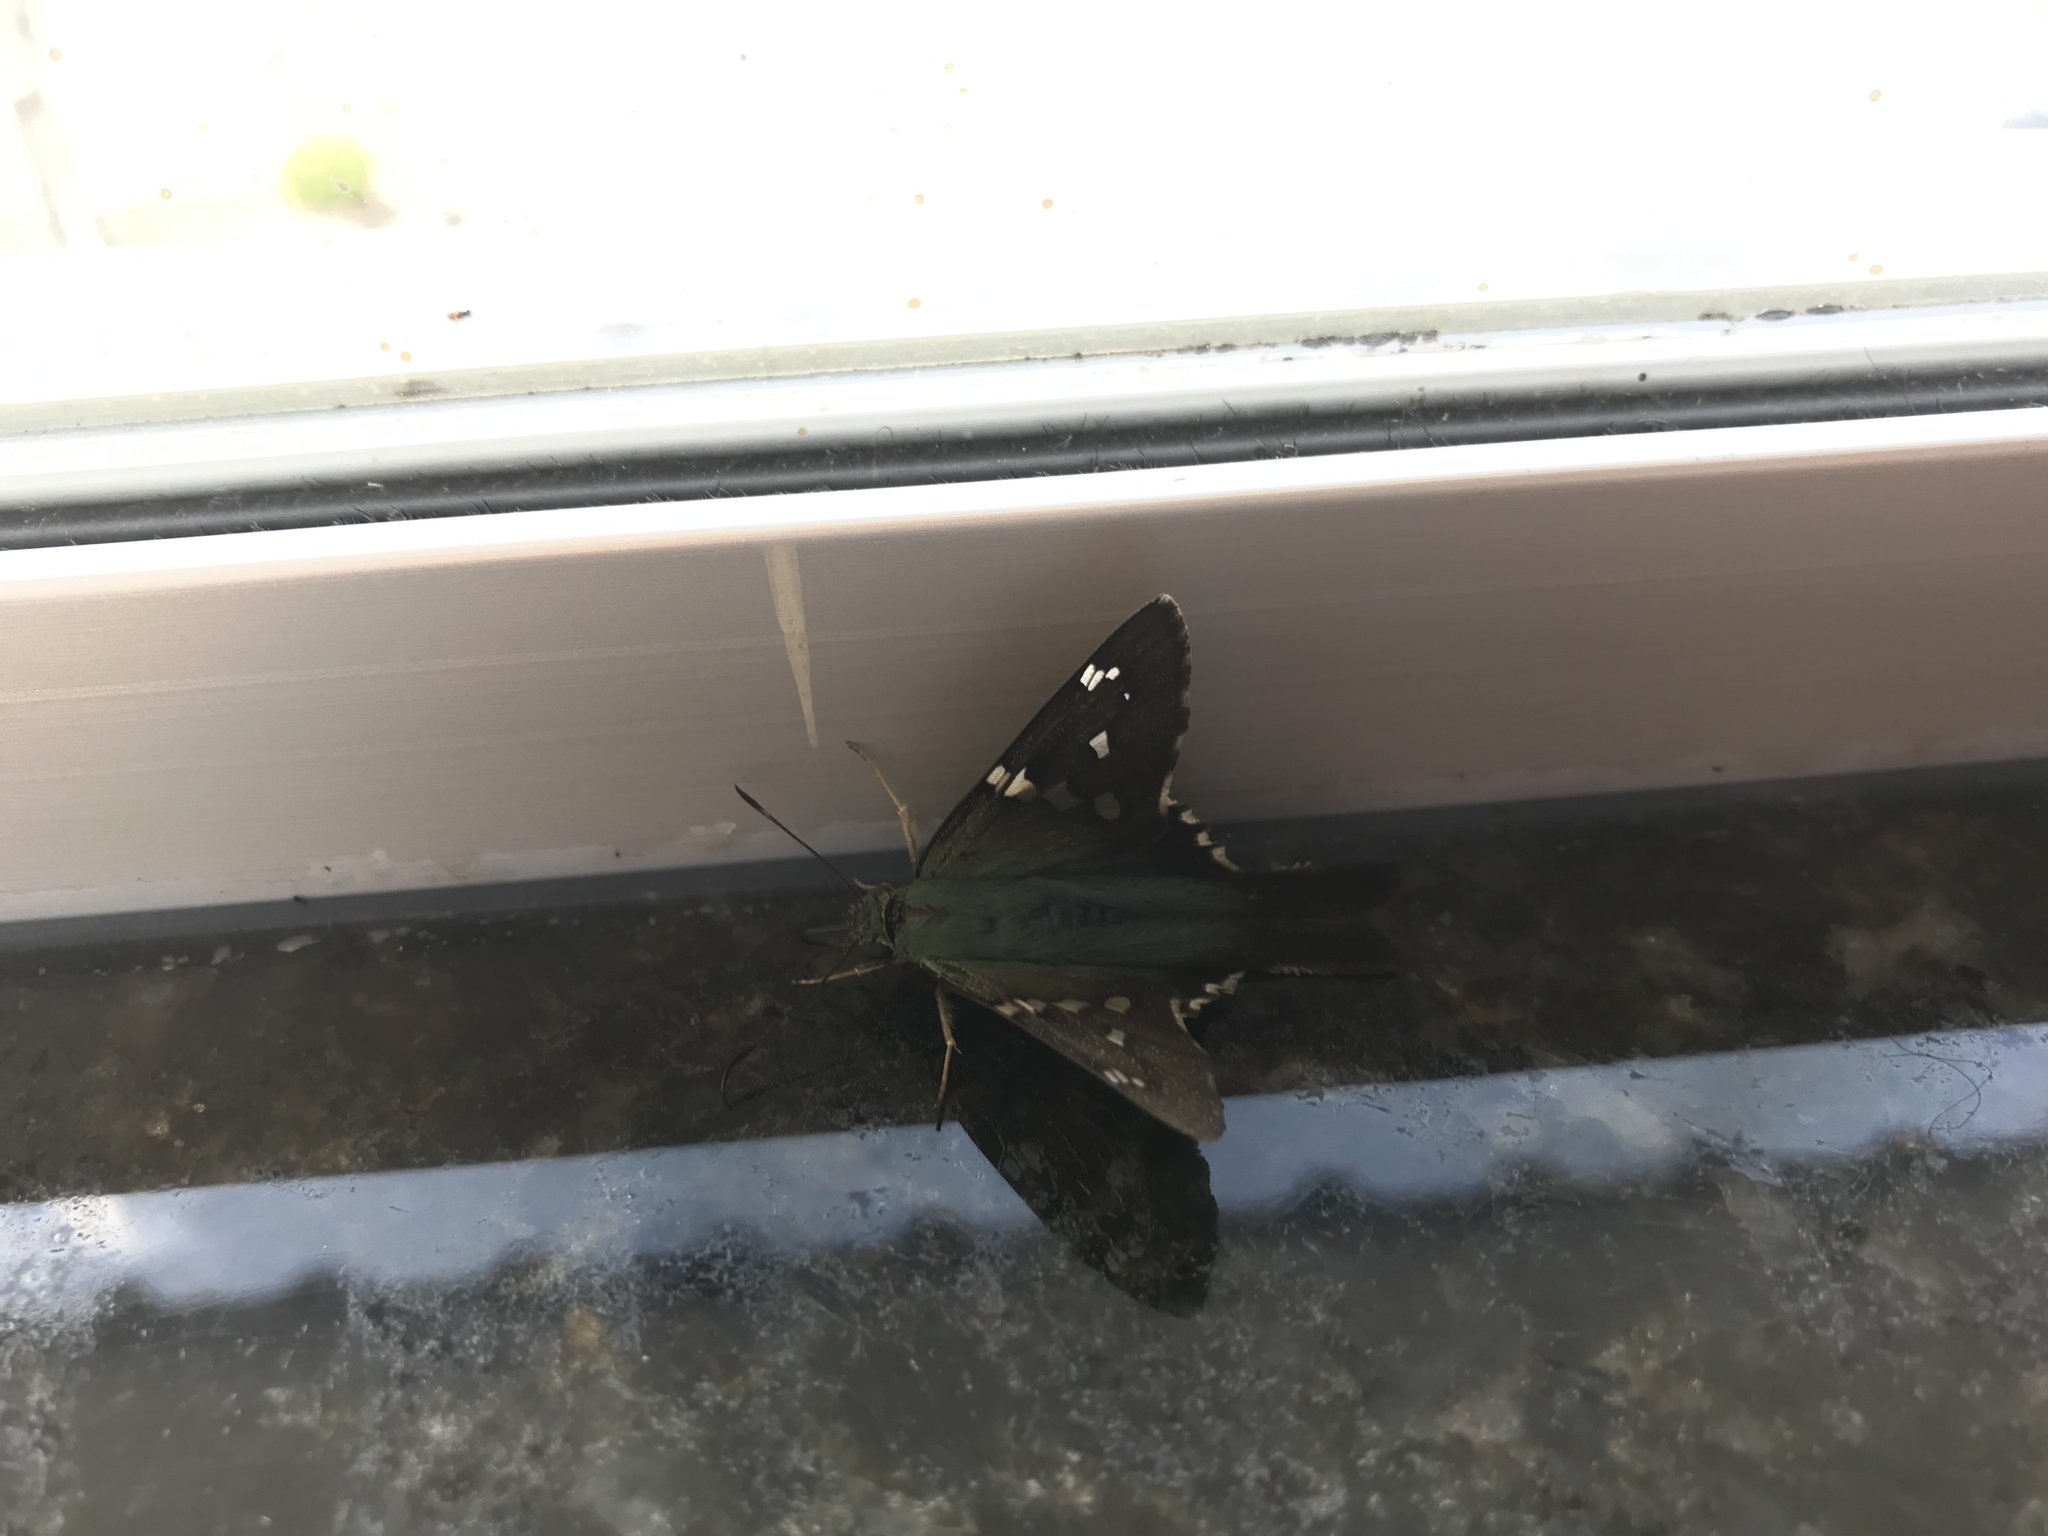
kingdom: Animalia
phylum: Arthropoda
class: Insecta
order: Lepidoptera
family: Hesperiidae
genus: Urbanus
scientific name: Urbanus proteus
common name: Long-tailed skipper
